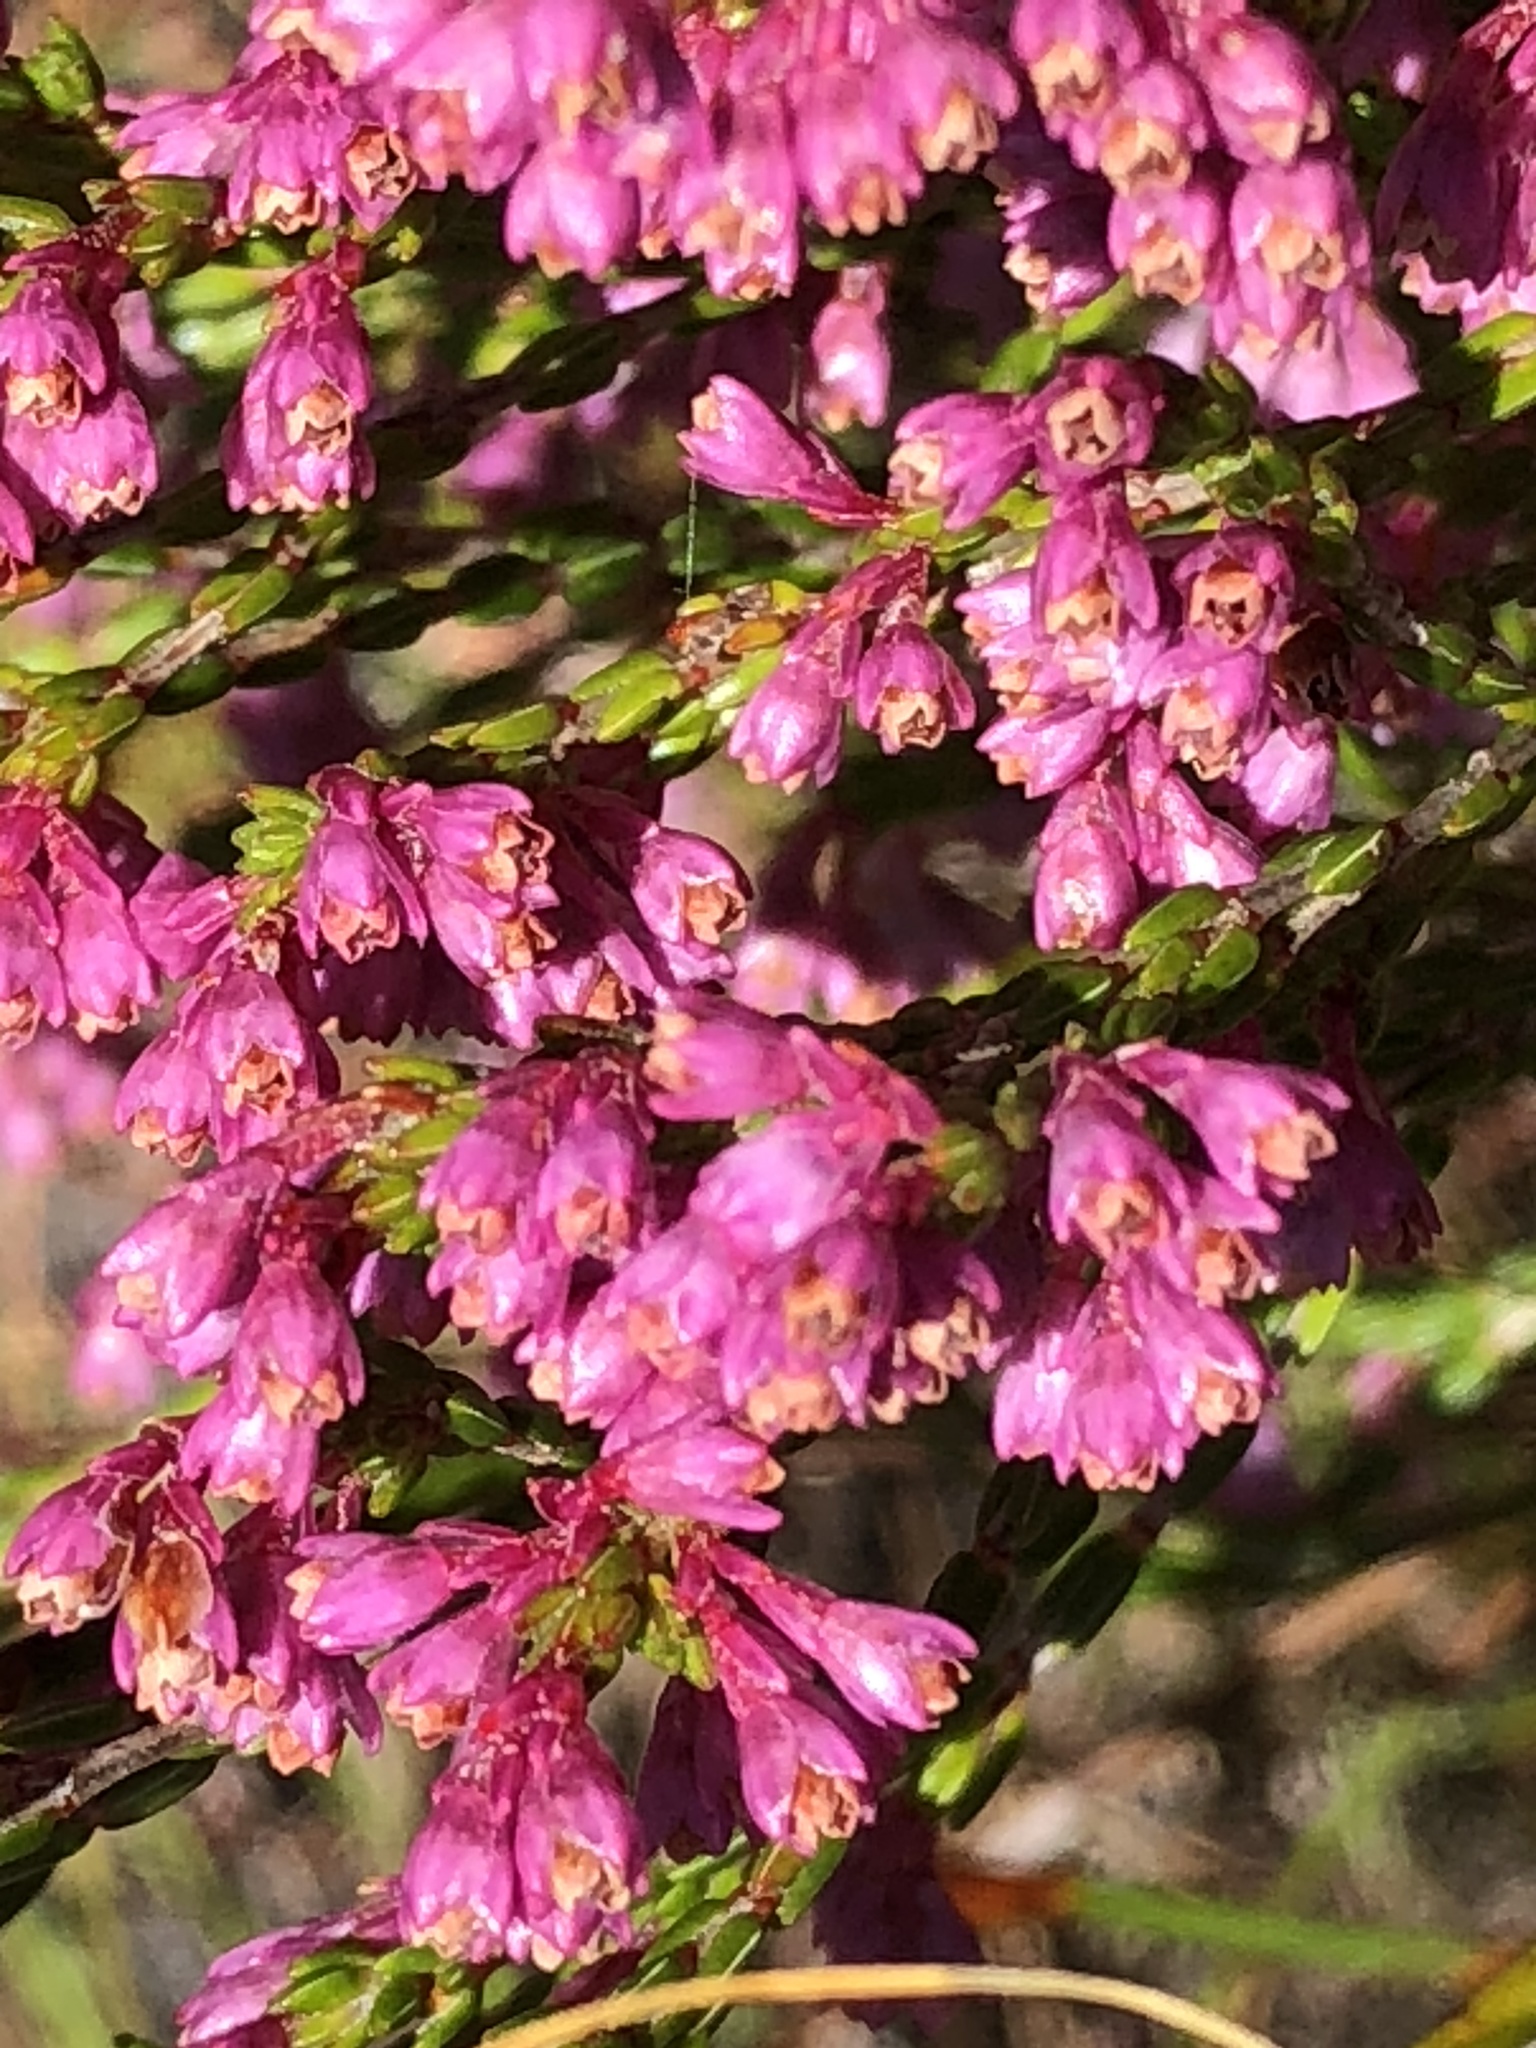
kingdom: Plantae
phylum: Tracheophyta
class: Magnoliopsida
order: Ericales
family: Ericaceae
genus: Erica
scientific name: Erica gnaphaloides
